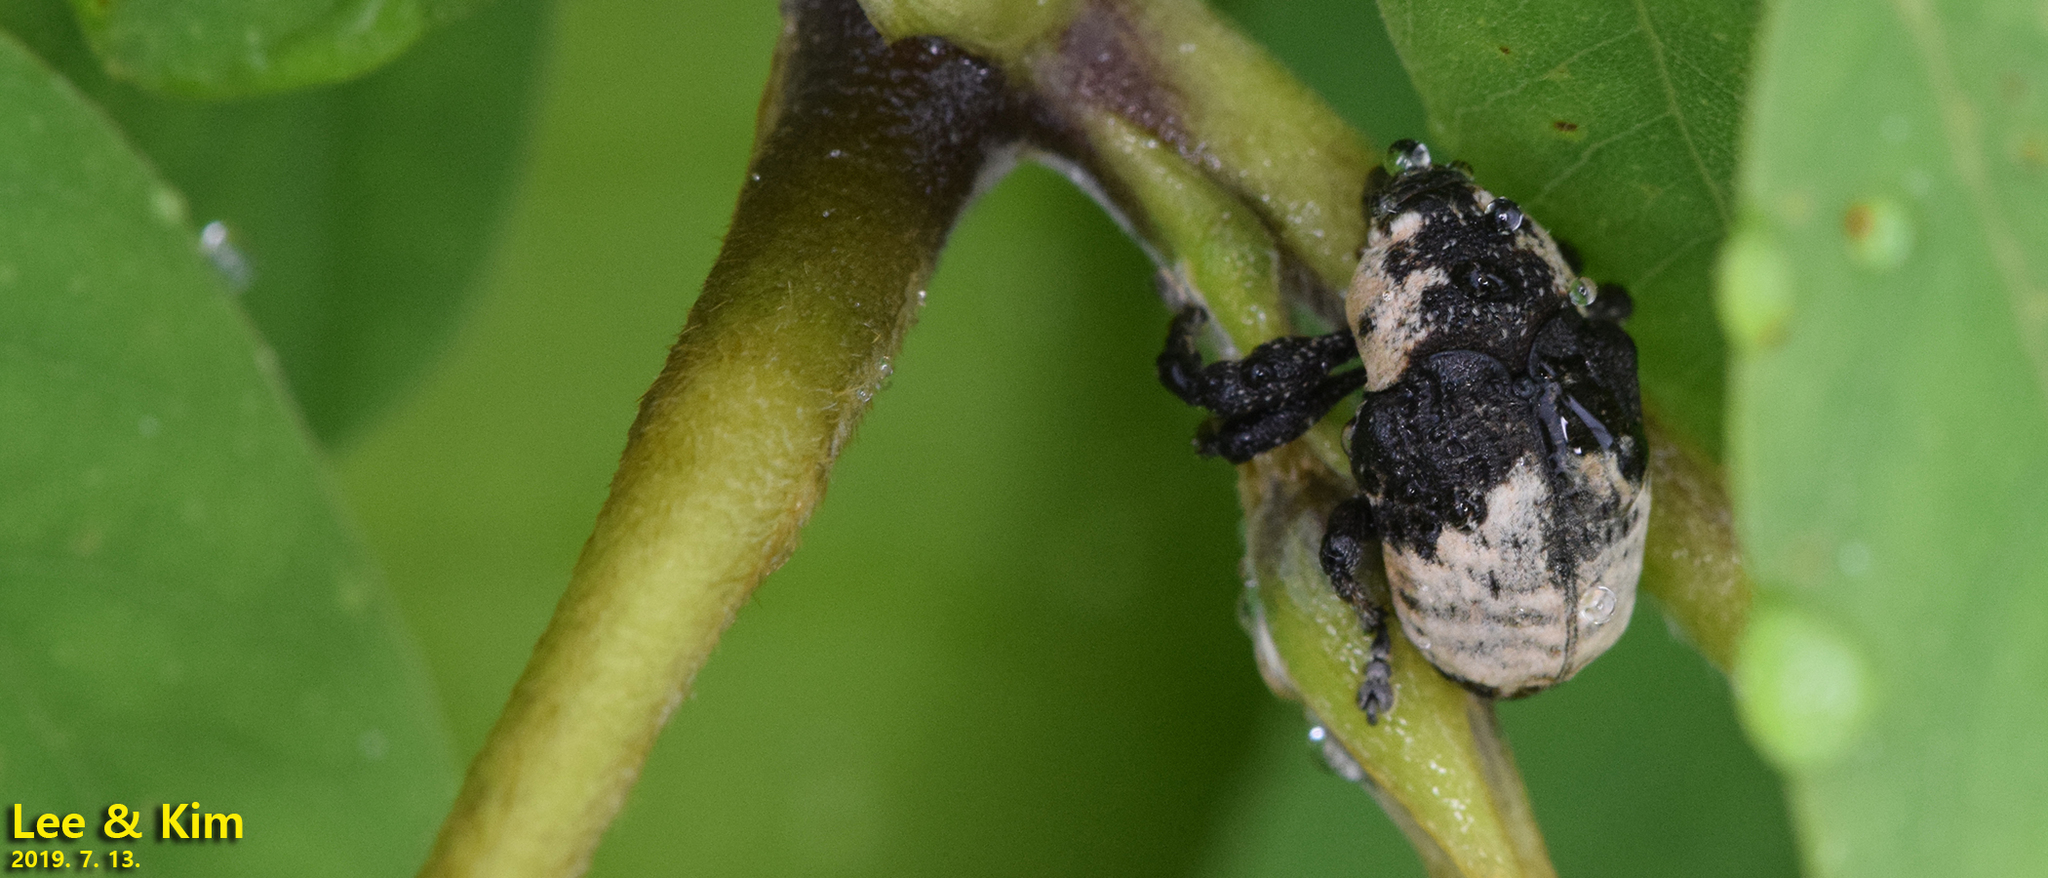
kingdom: Animalia
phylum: Arthropoda
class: Insecta
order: Coleoptera
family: Curculionidae
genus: Alcides
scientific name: Alcides trifidus
